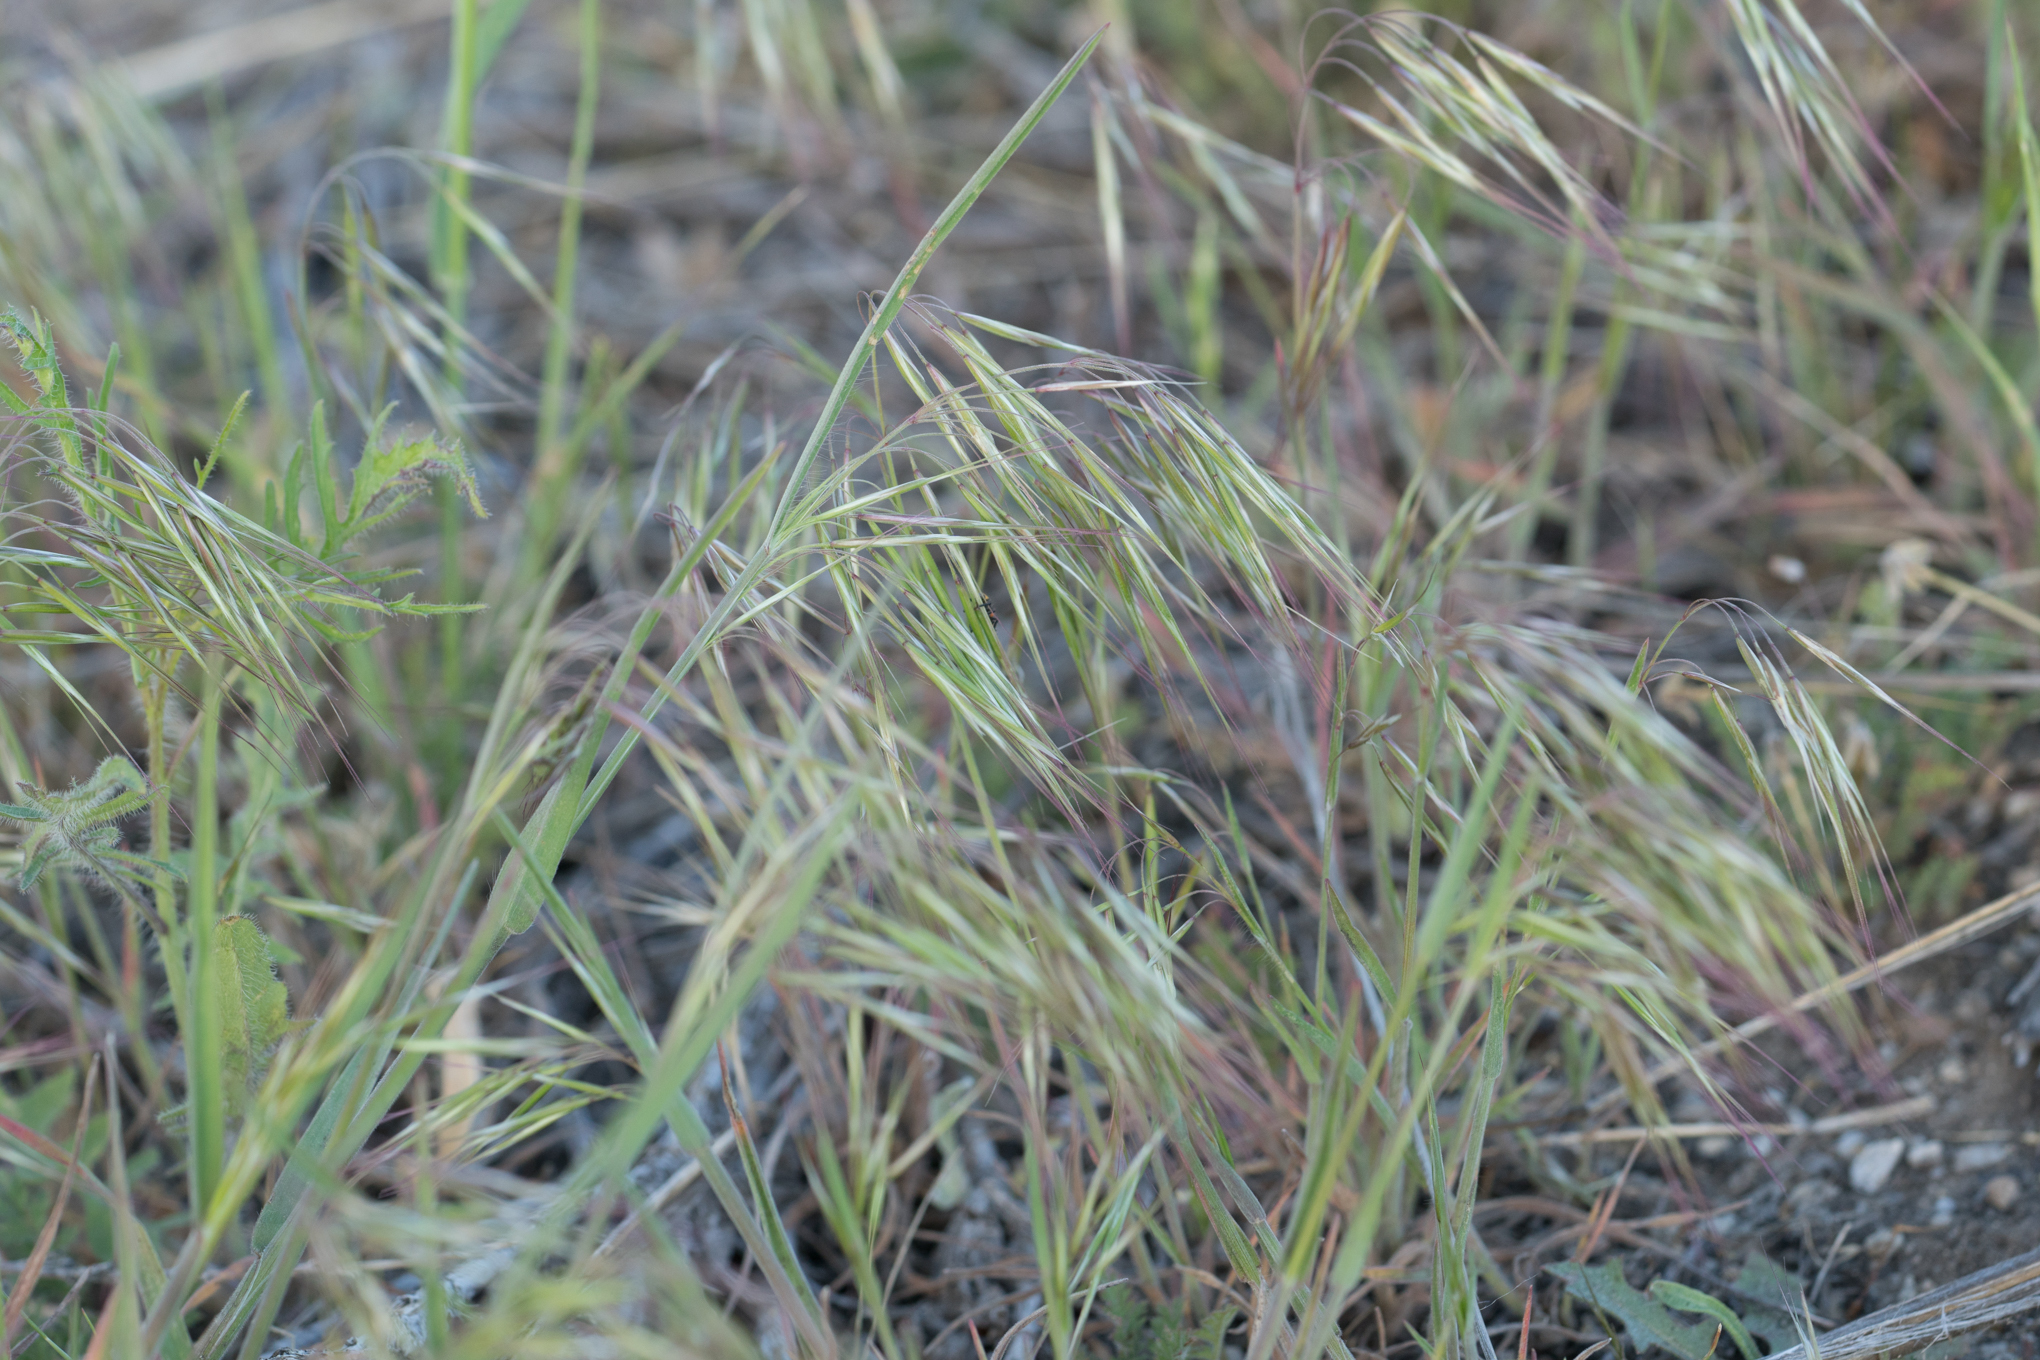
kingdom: Plantae
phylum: Tracheophyta
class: Liliopsida
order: Poales
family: Poaceae
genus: Bromus
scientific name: Bromus tectorum
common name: Cheatgrass
